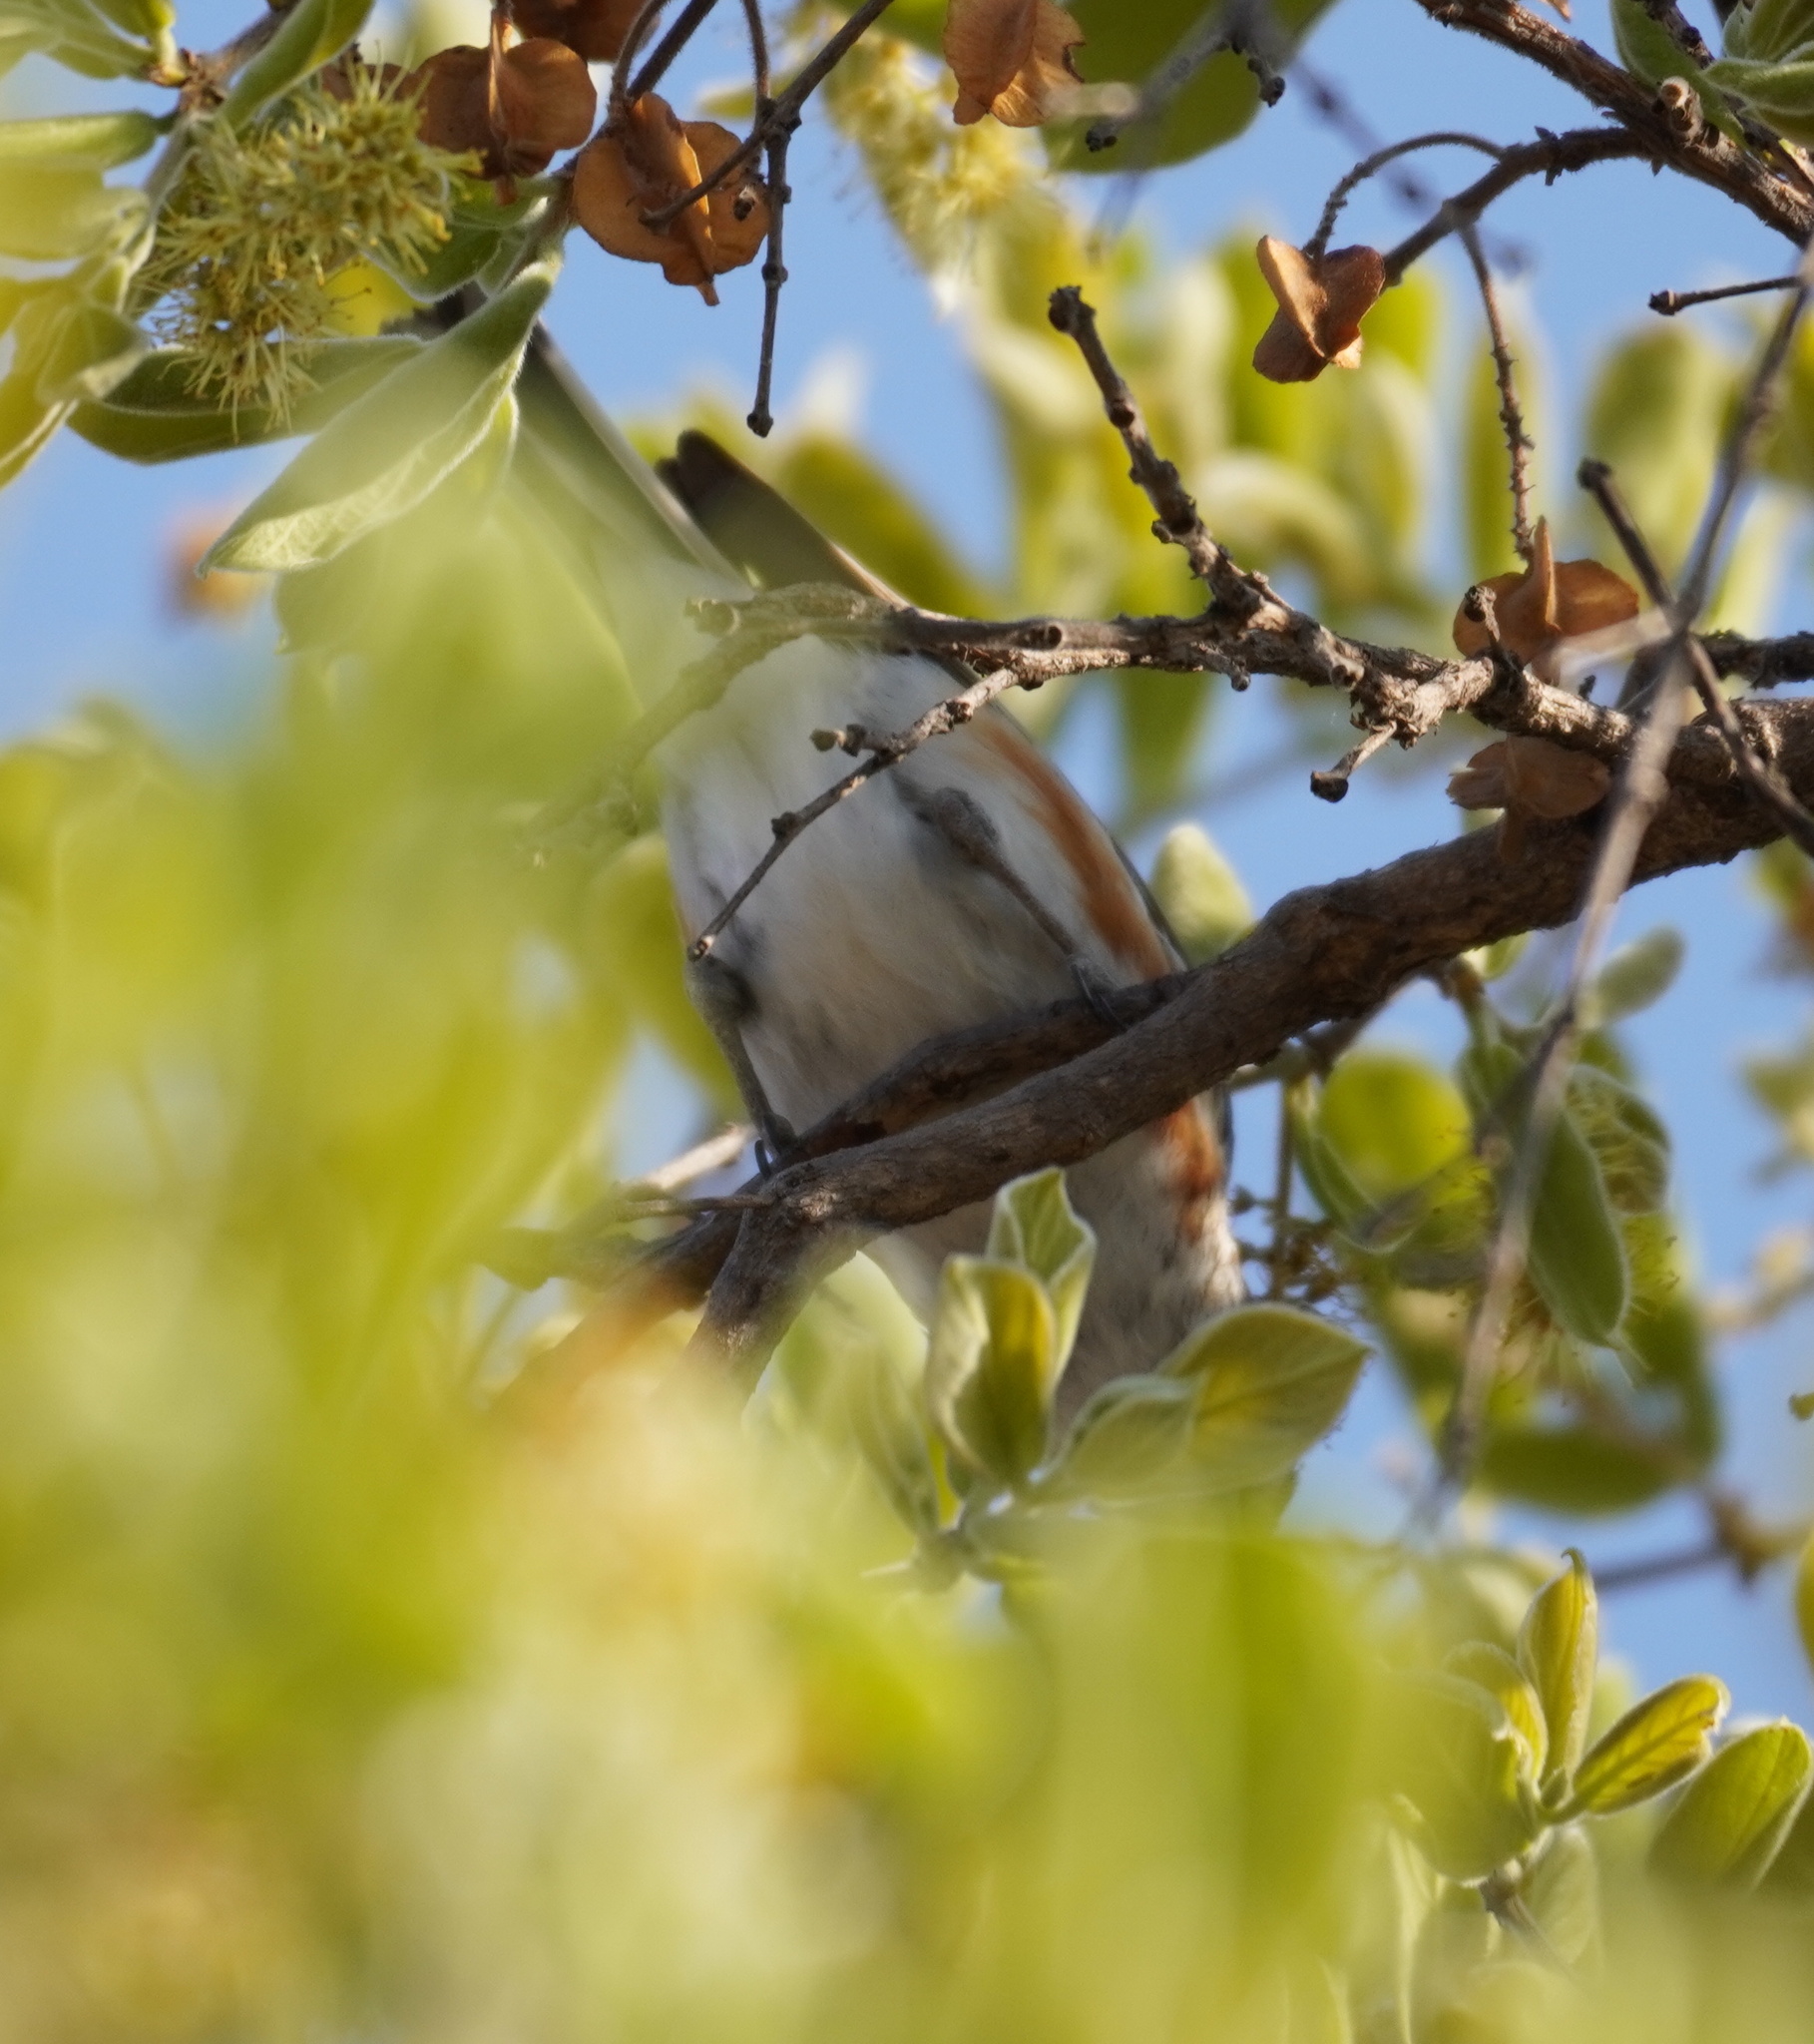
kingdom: Animalia
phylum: Chordata
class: Aves
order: Passeriformes
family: Malaconotidae
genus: Nilaus
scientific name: Nilaus afer
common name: Brubru
